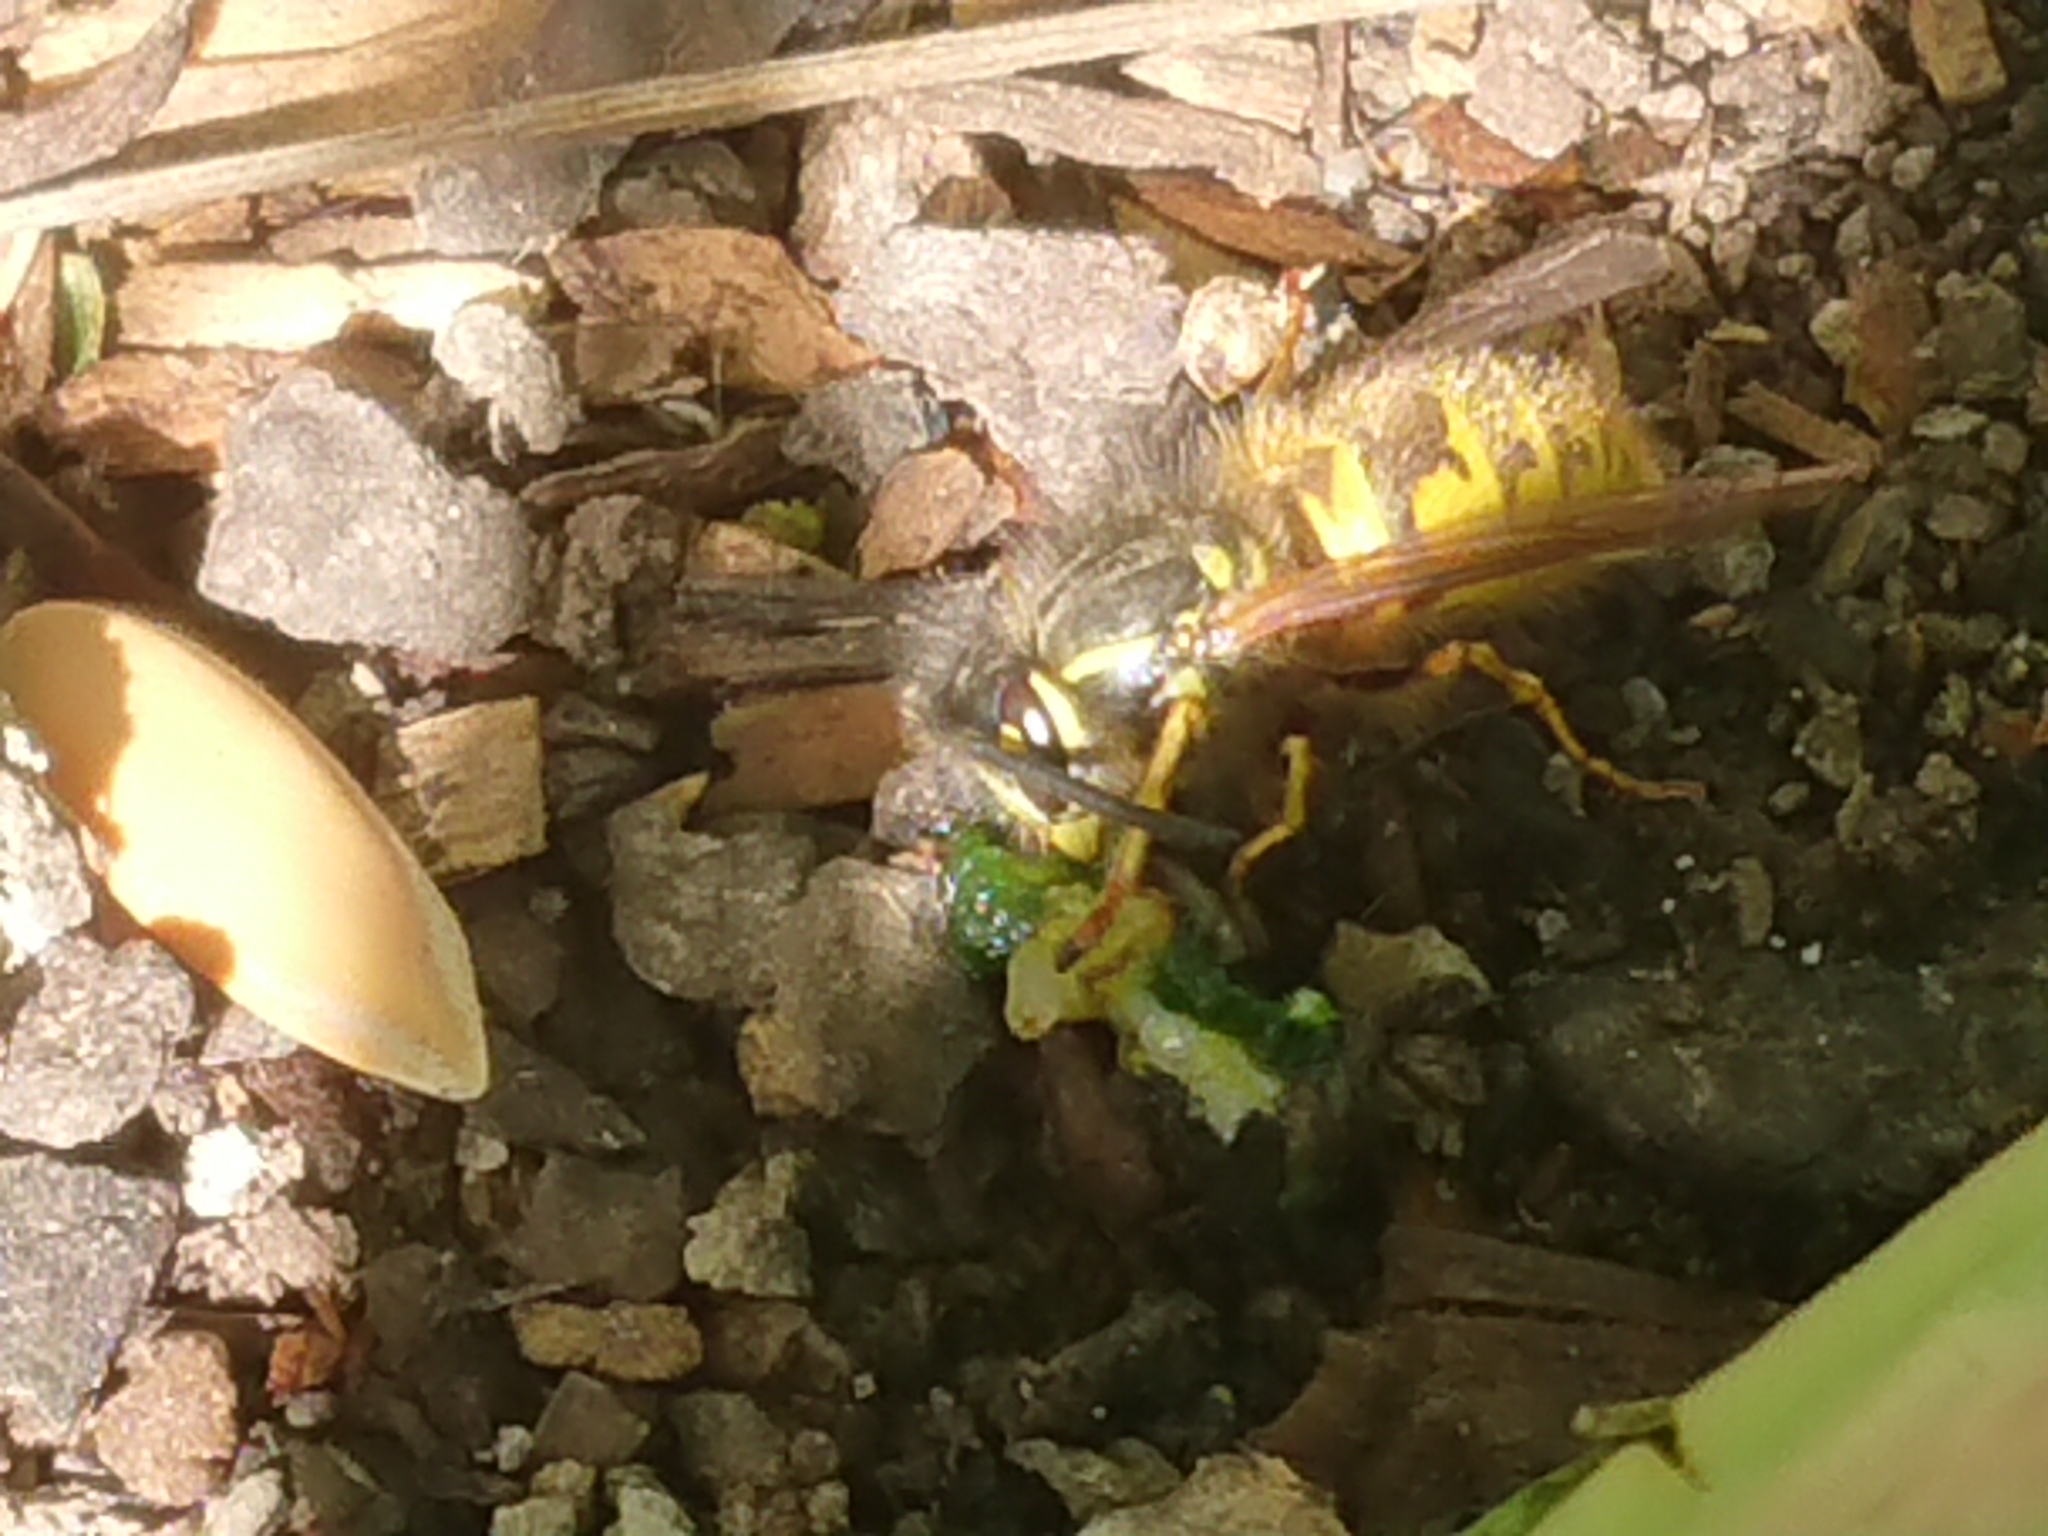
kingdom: Animalia
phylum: Arthropoda
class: Insecta
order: Hymenoptera
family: Vespidae
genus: Vespula
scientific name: Vespula vulgaris
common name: Common wasp
